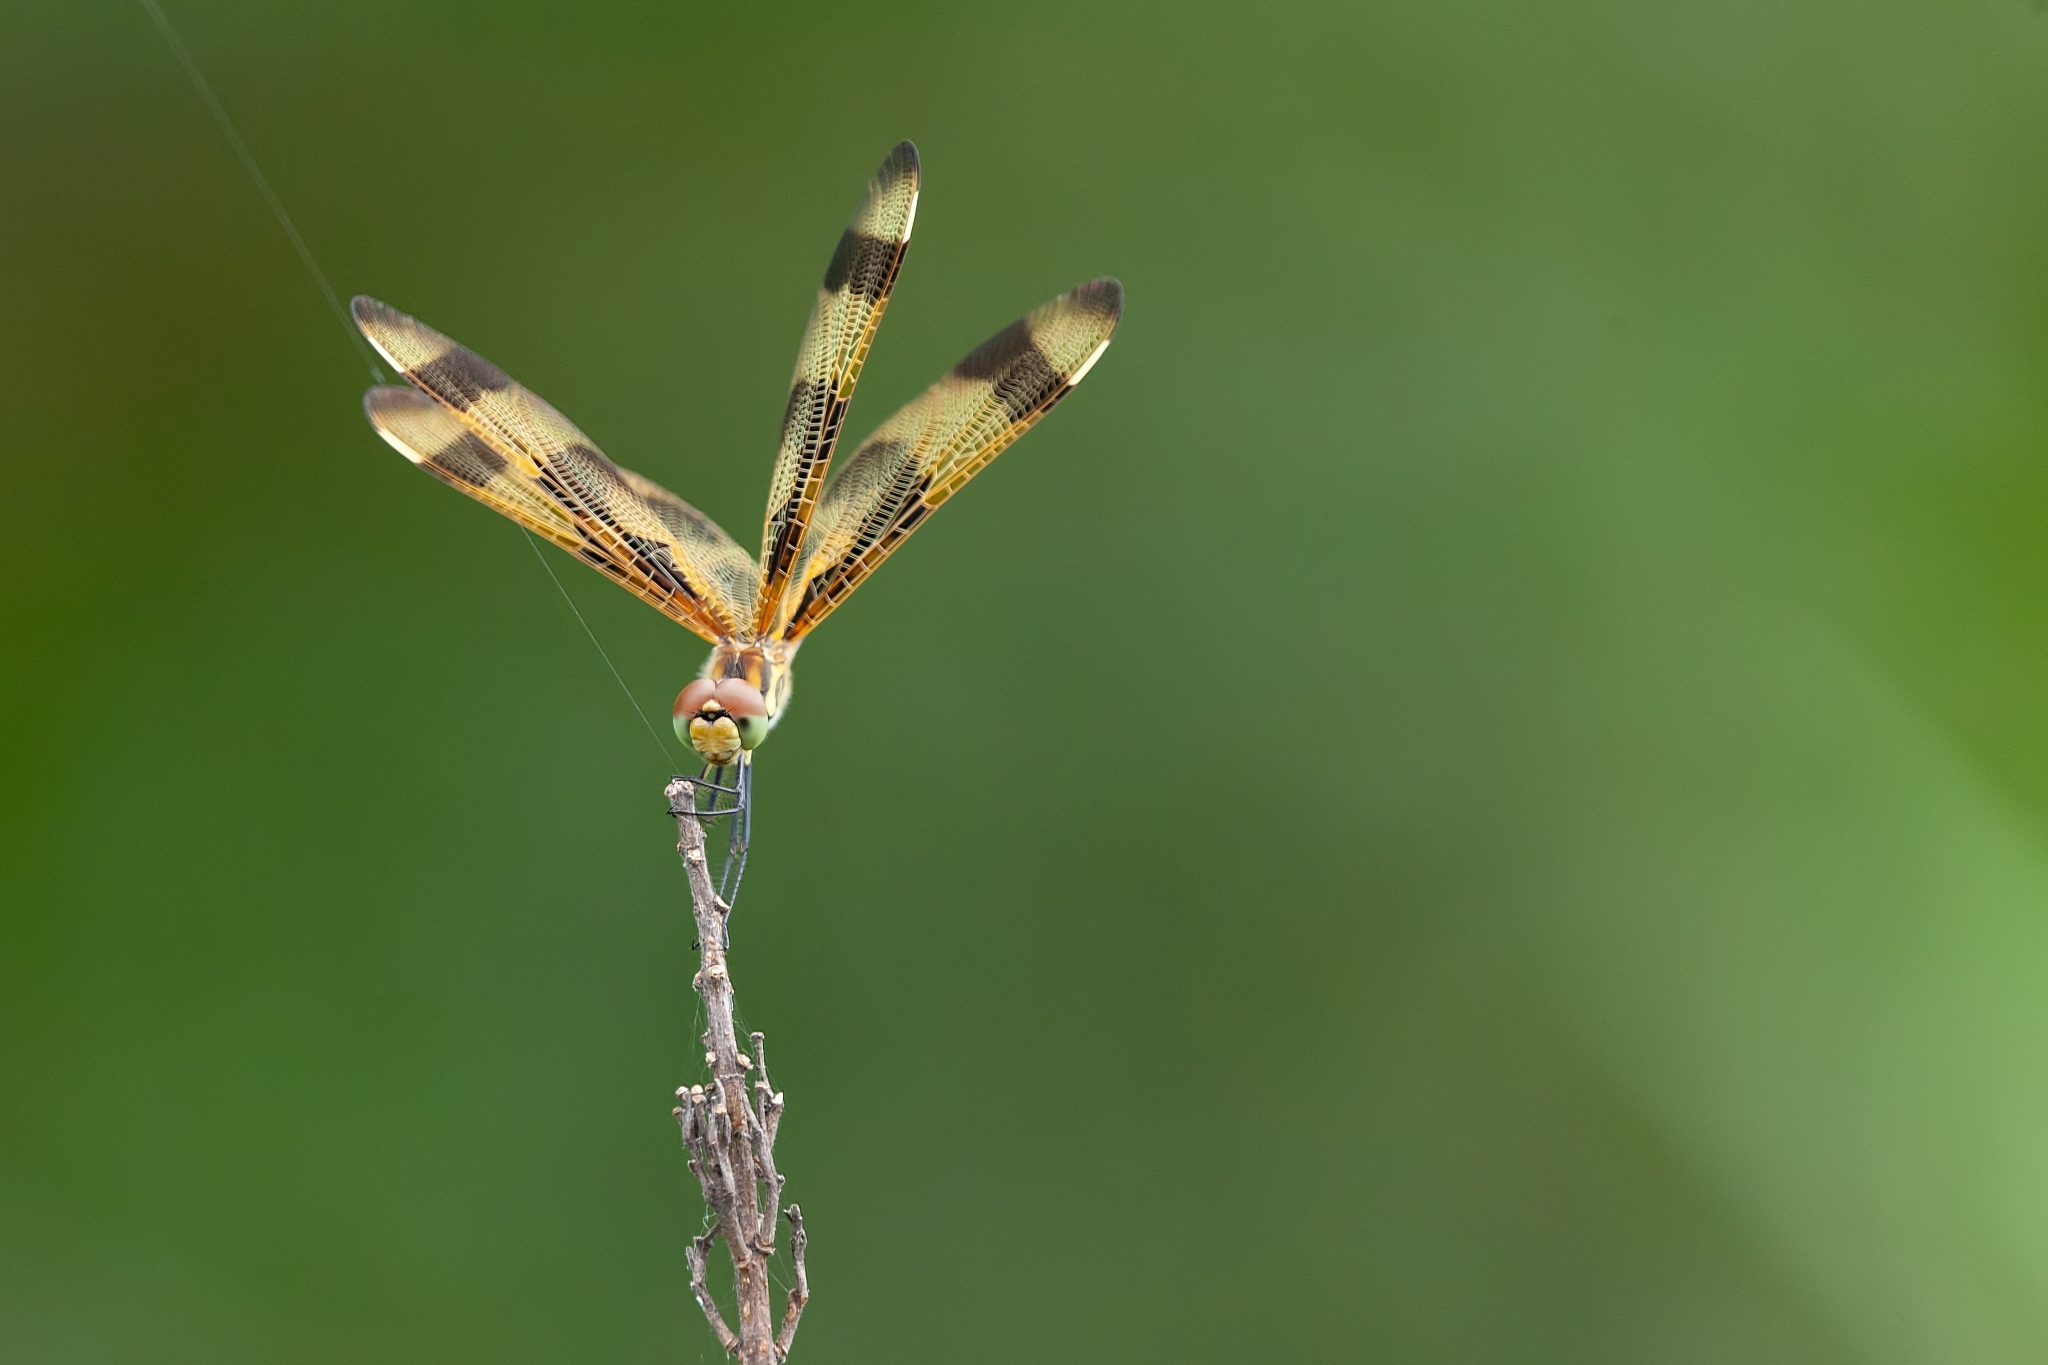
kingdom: Animalia
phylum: Arthropoda
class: Insecta
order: Odonata
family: Libellulidae
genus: Celithemis
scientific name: Celithemis eponina
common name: Halloween pennant
